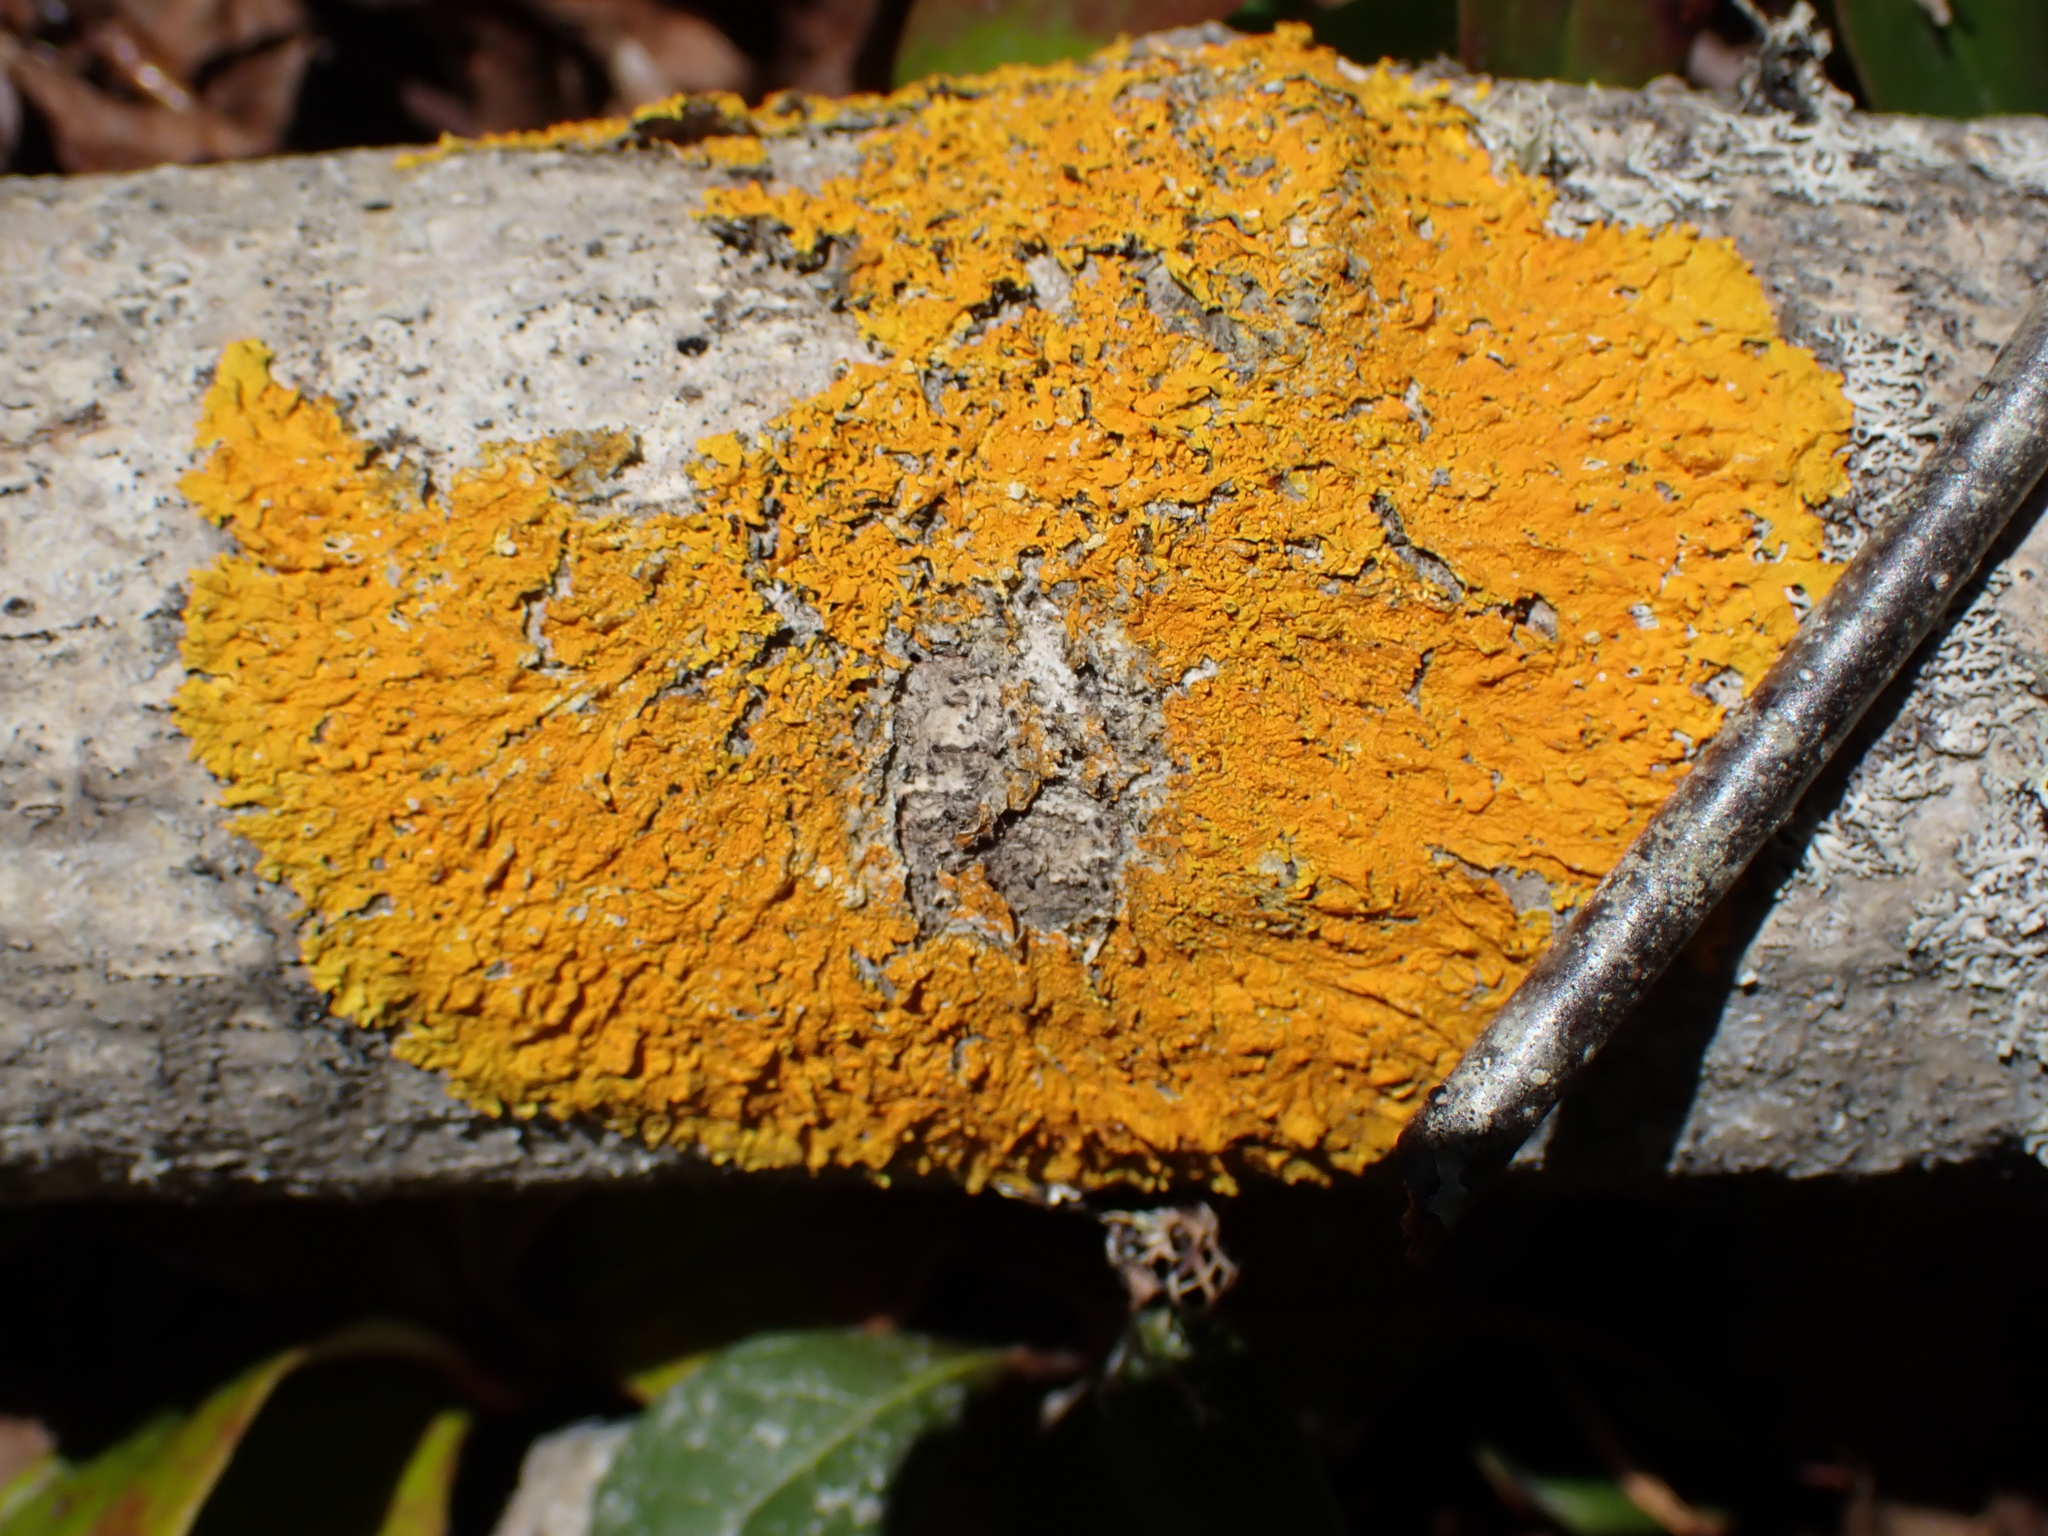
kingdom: Fungi
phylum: Ascomycota
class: Lecanoromycetes
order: Teloschistales
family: Teloschistaceae
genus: Xanthoria
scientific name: Xanthoria parietina
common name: Common orange lichen
